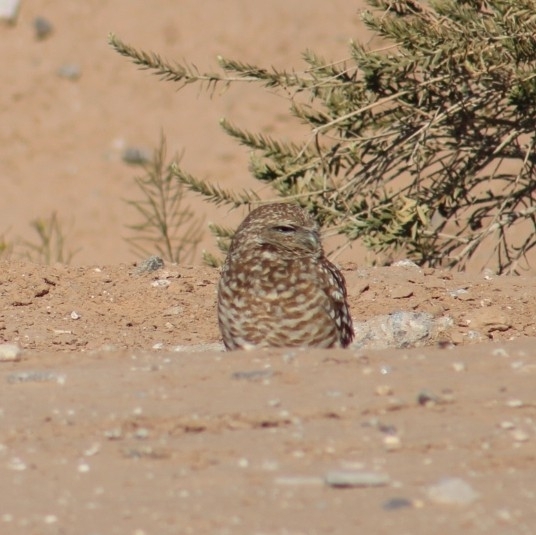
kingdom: Animalia
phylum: Chordata
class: Aves
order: Strigiformes
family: Strigidae
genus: Athene
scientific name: Athene cunicularia
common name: Burrowing owl
